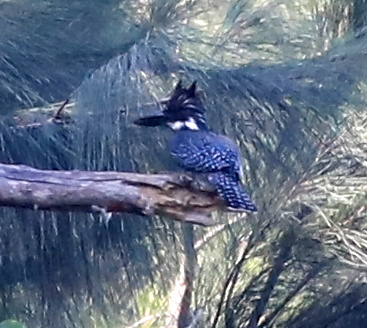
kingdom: Animalia
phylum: Chordata
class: Aves
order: Coraciiformes
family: Alcedinidae
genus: Megaceryle
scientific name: Megaceryle maxima
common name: Giant kingfisher
